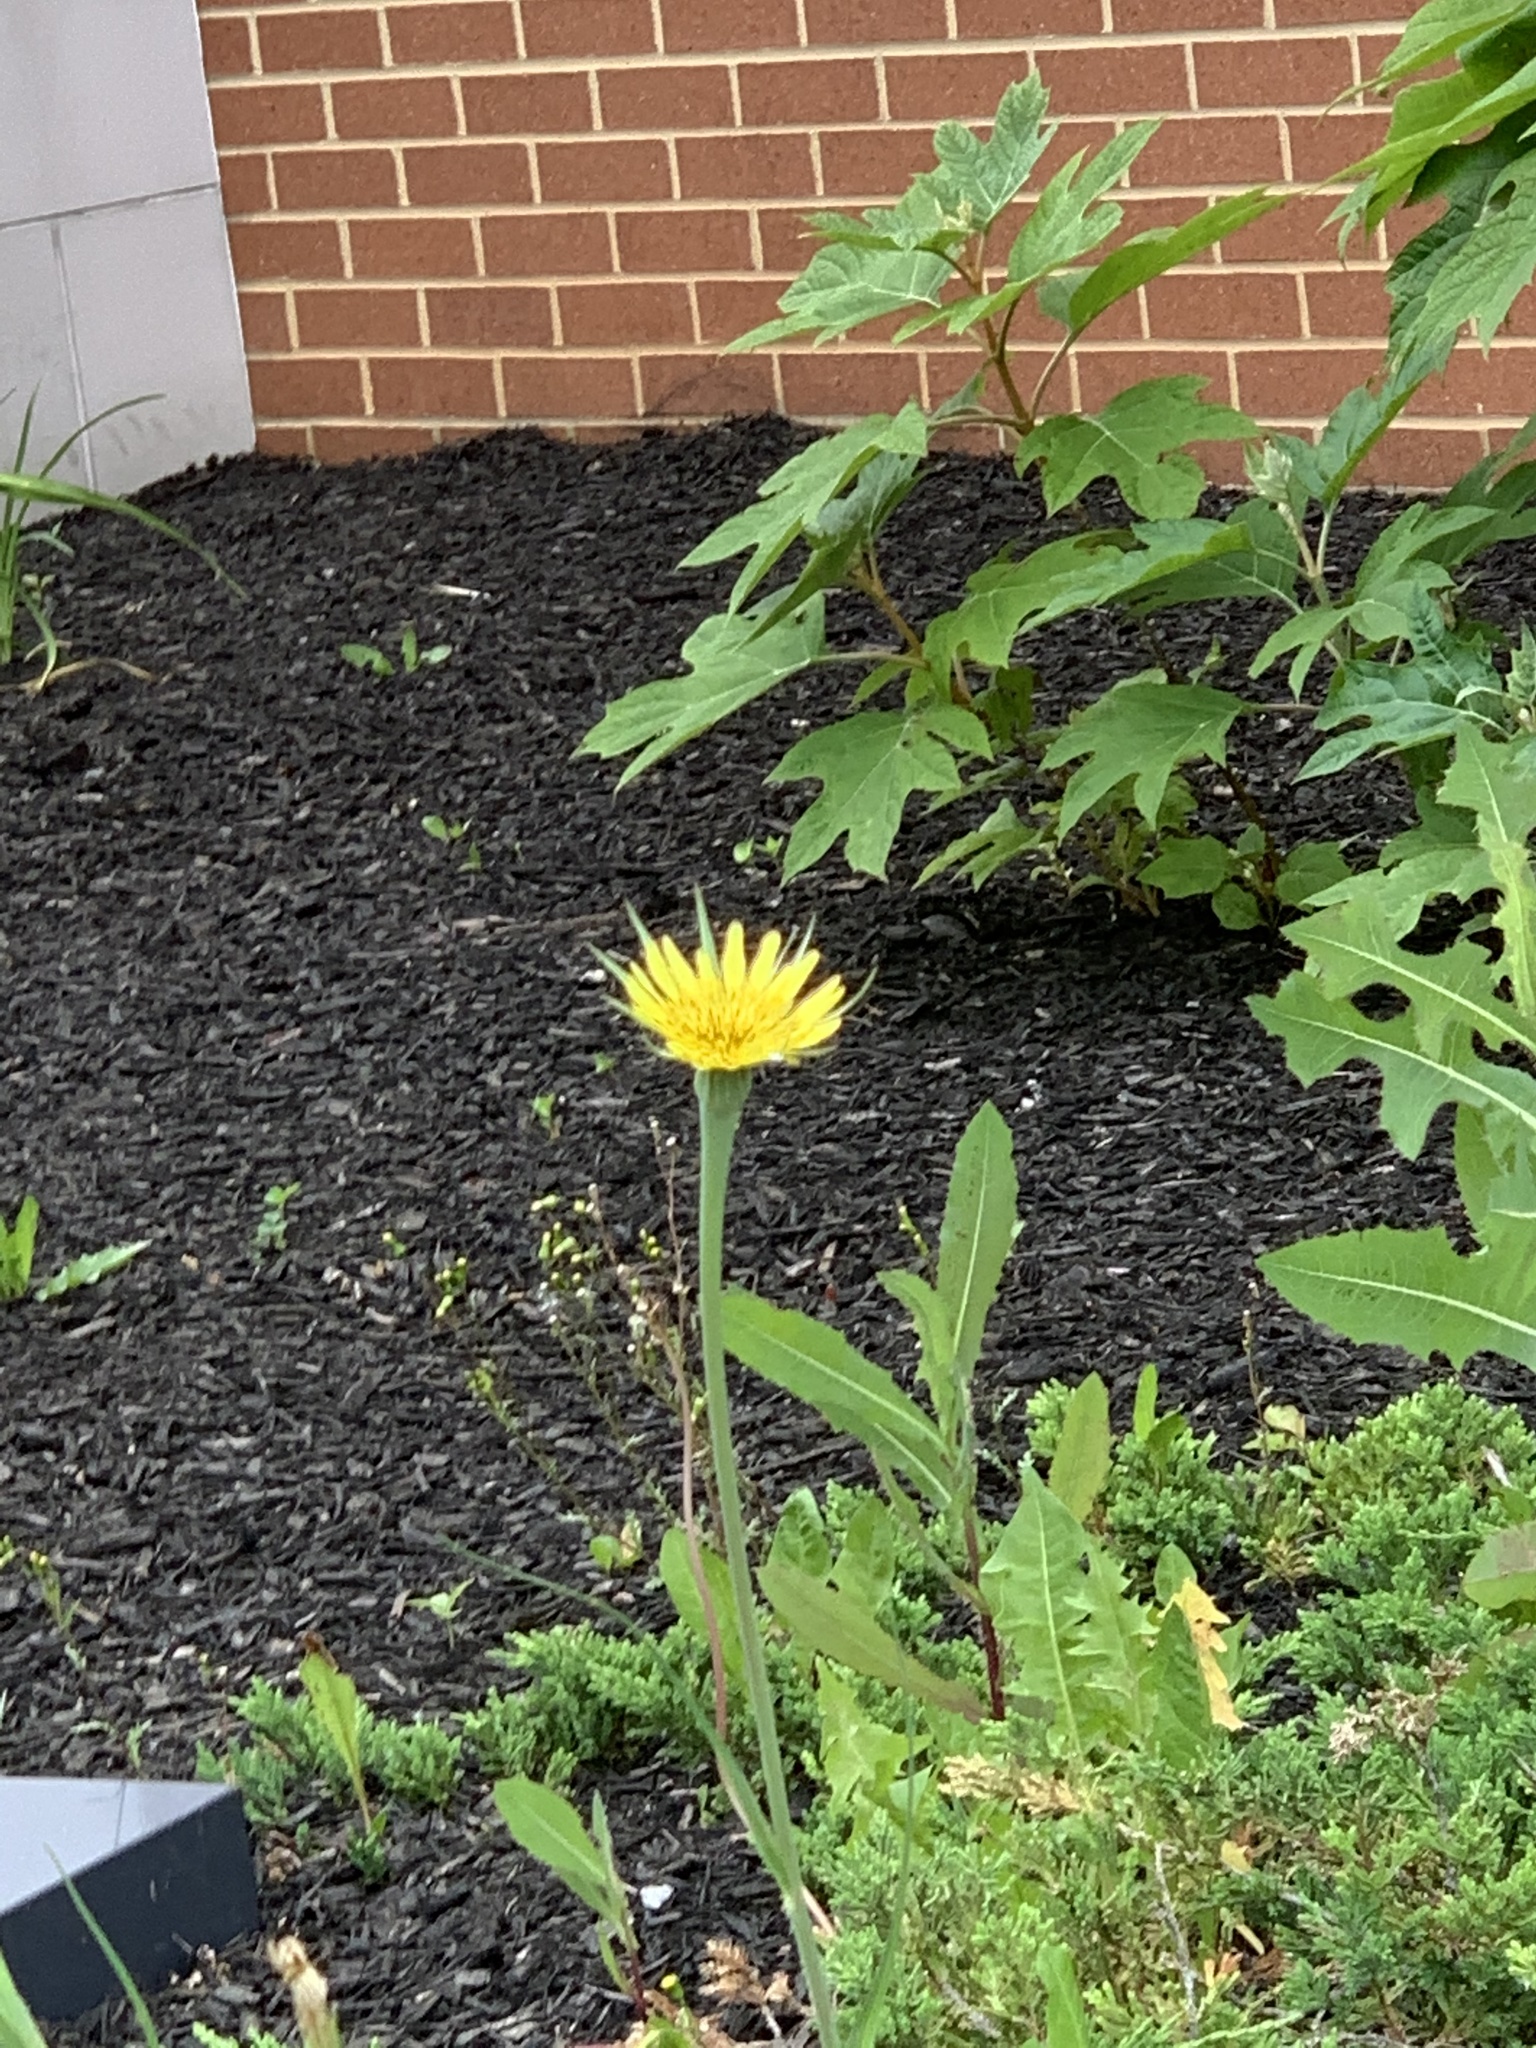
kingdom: Plantae
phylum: Tracheophyta
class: Magnoliopsida
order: Asterales
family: Asteraceae
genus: Tragopogon
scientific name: Tragopogon dubius
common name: Yellow salsify
